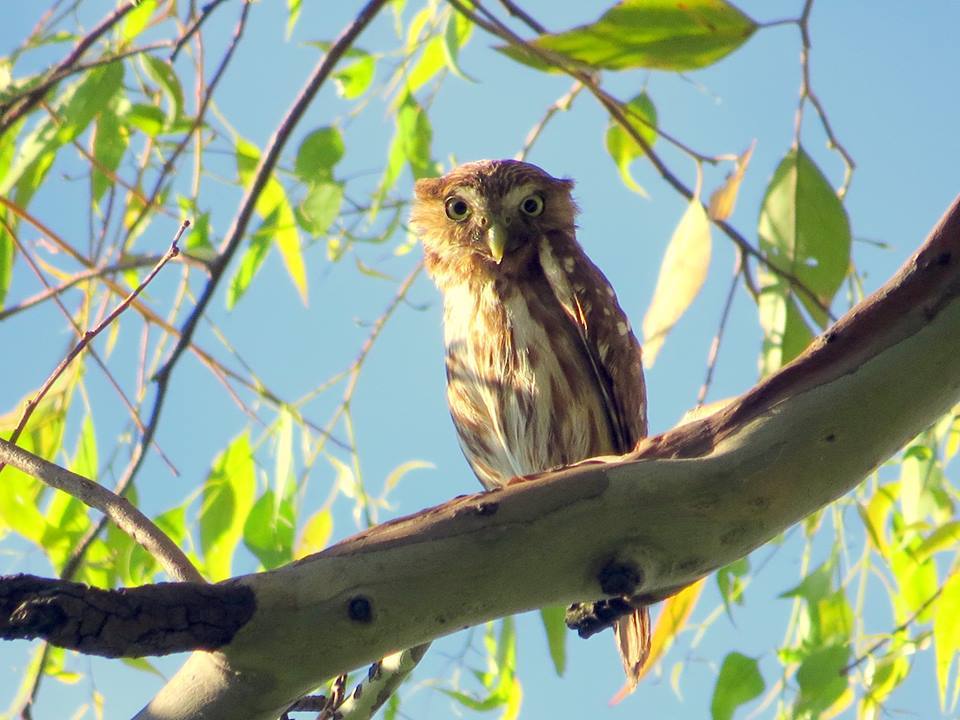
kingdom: Animalia
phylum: Chordata
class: Aves
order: Strigiformes
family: Strigidae
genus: Glaucidium
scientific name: Glaucidium brasilianum
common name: Ferruginous pygmy-owl
